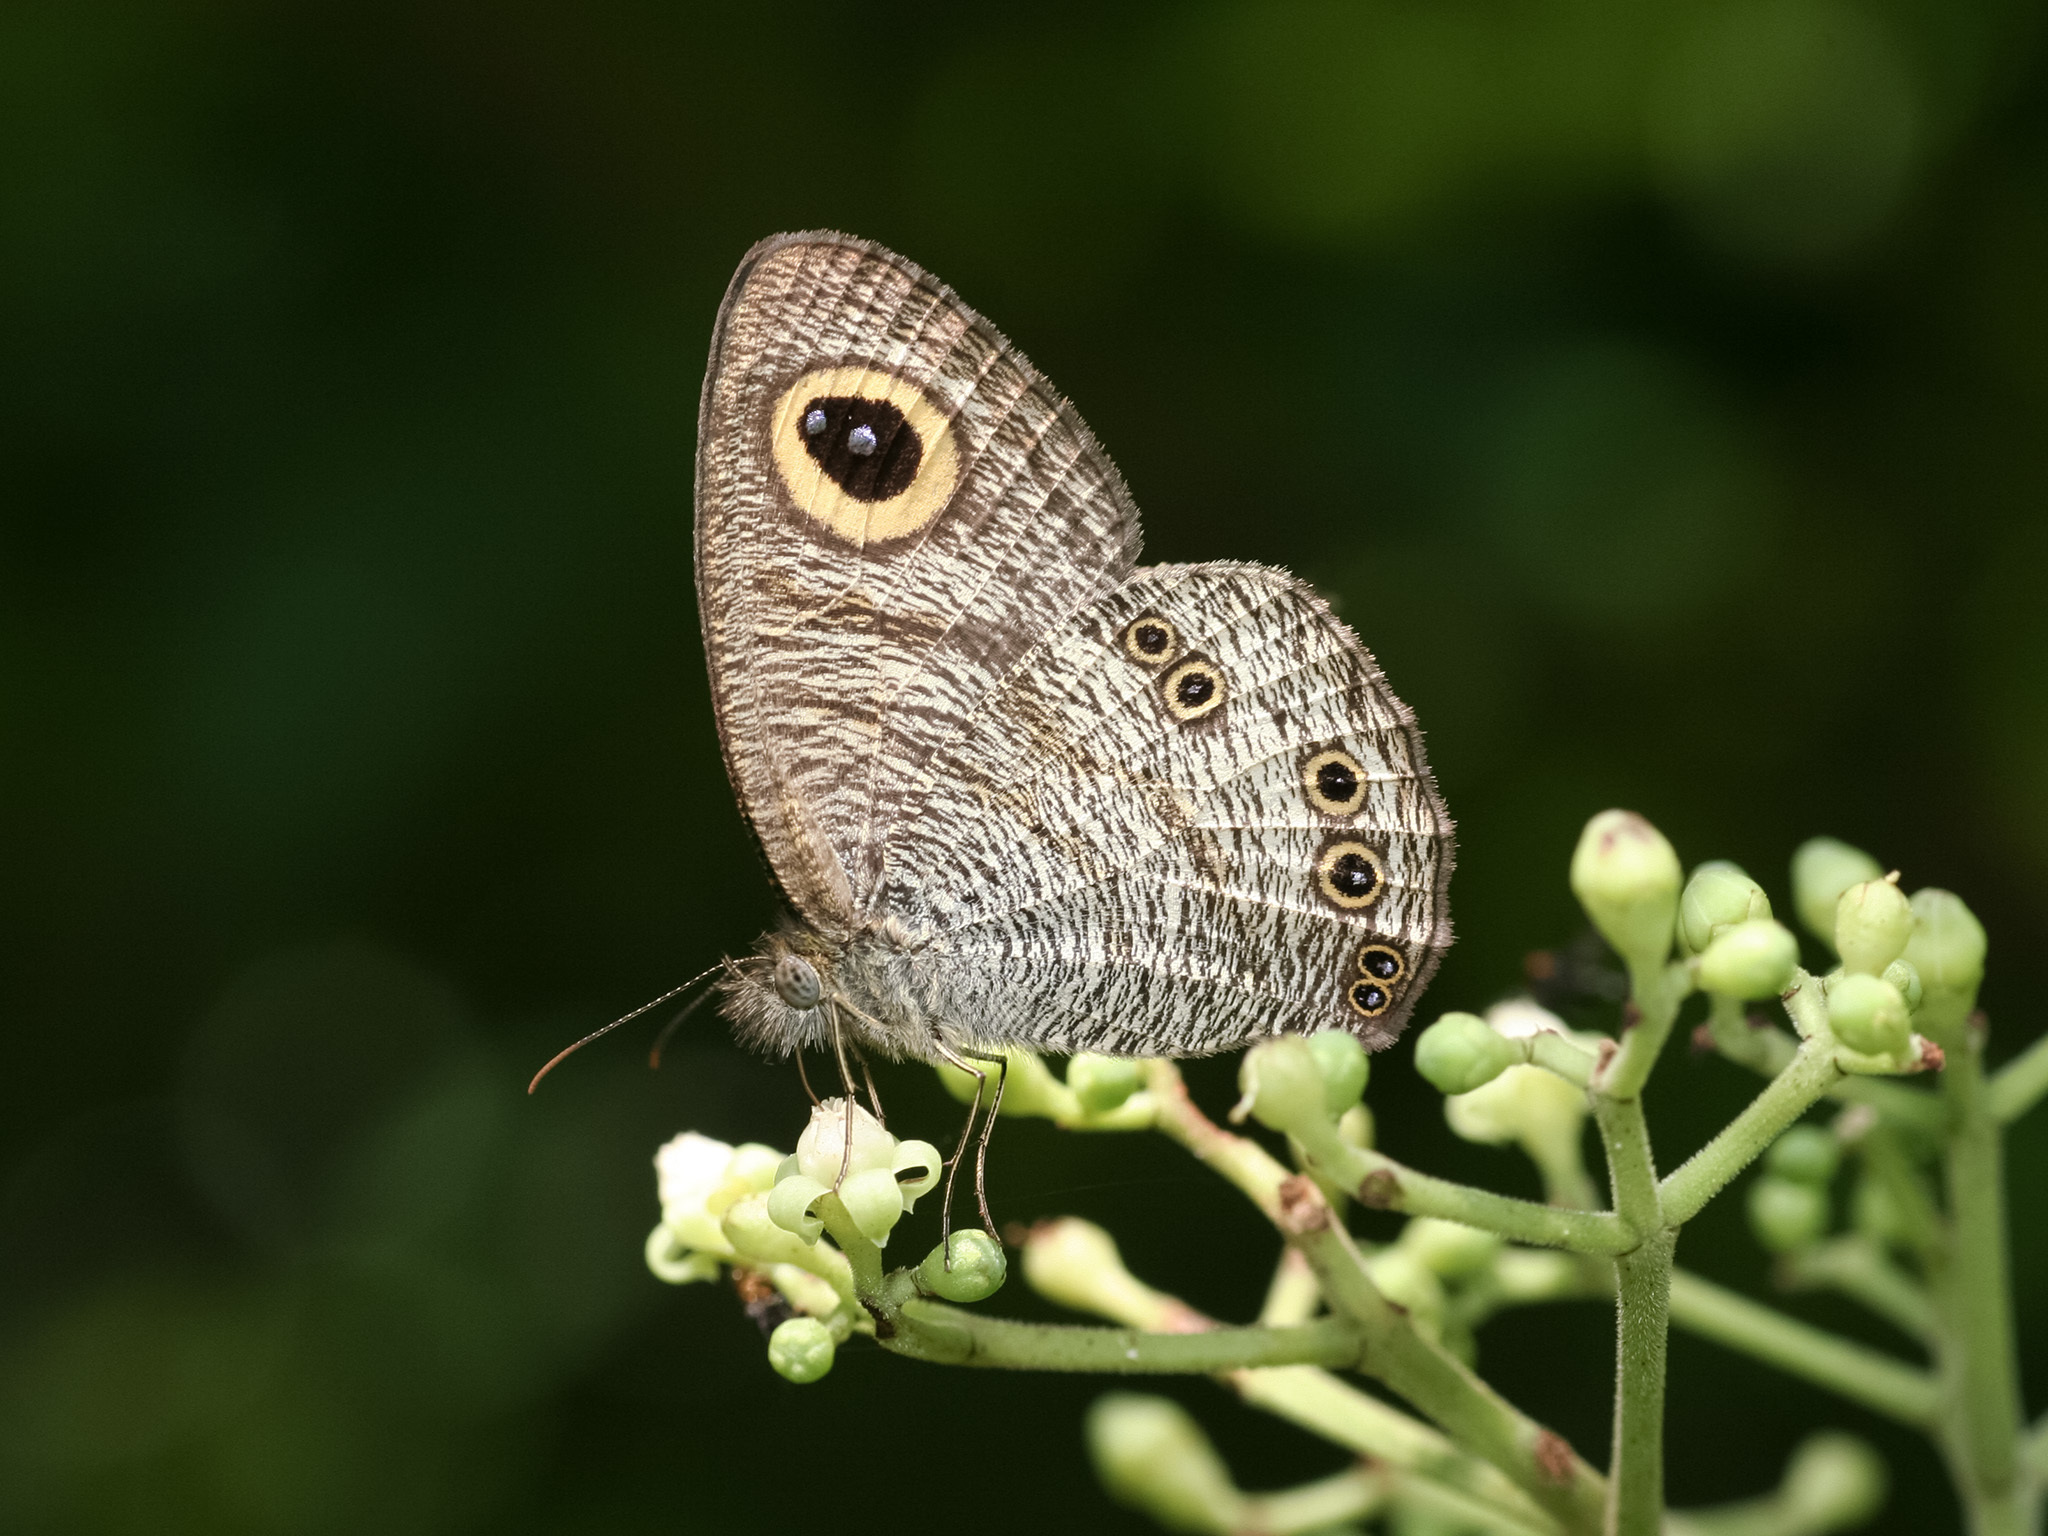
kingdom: Animalia
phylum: Arthropoda
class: Insecta
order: Lepidoptera
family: Nymphalidae
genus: Ypthima
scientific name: Ypthima baldus
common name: Common five-ring
